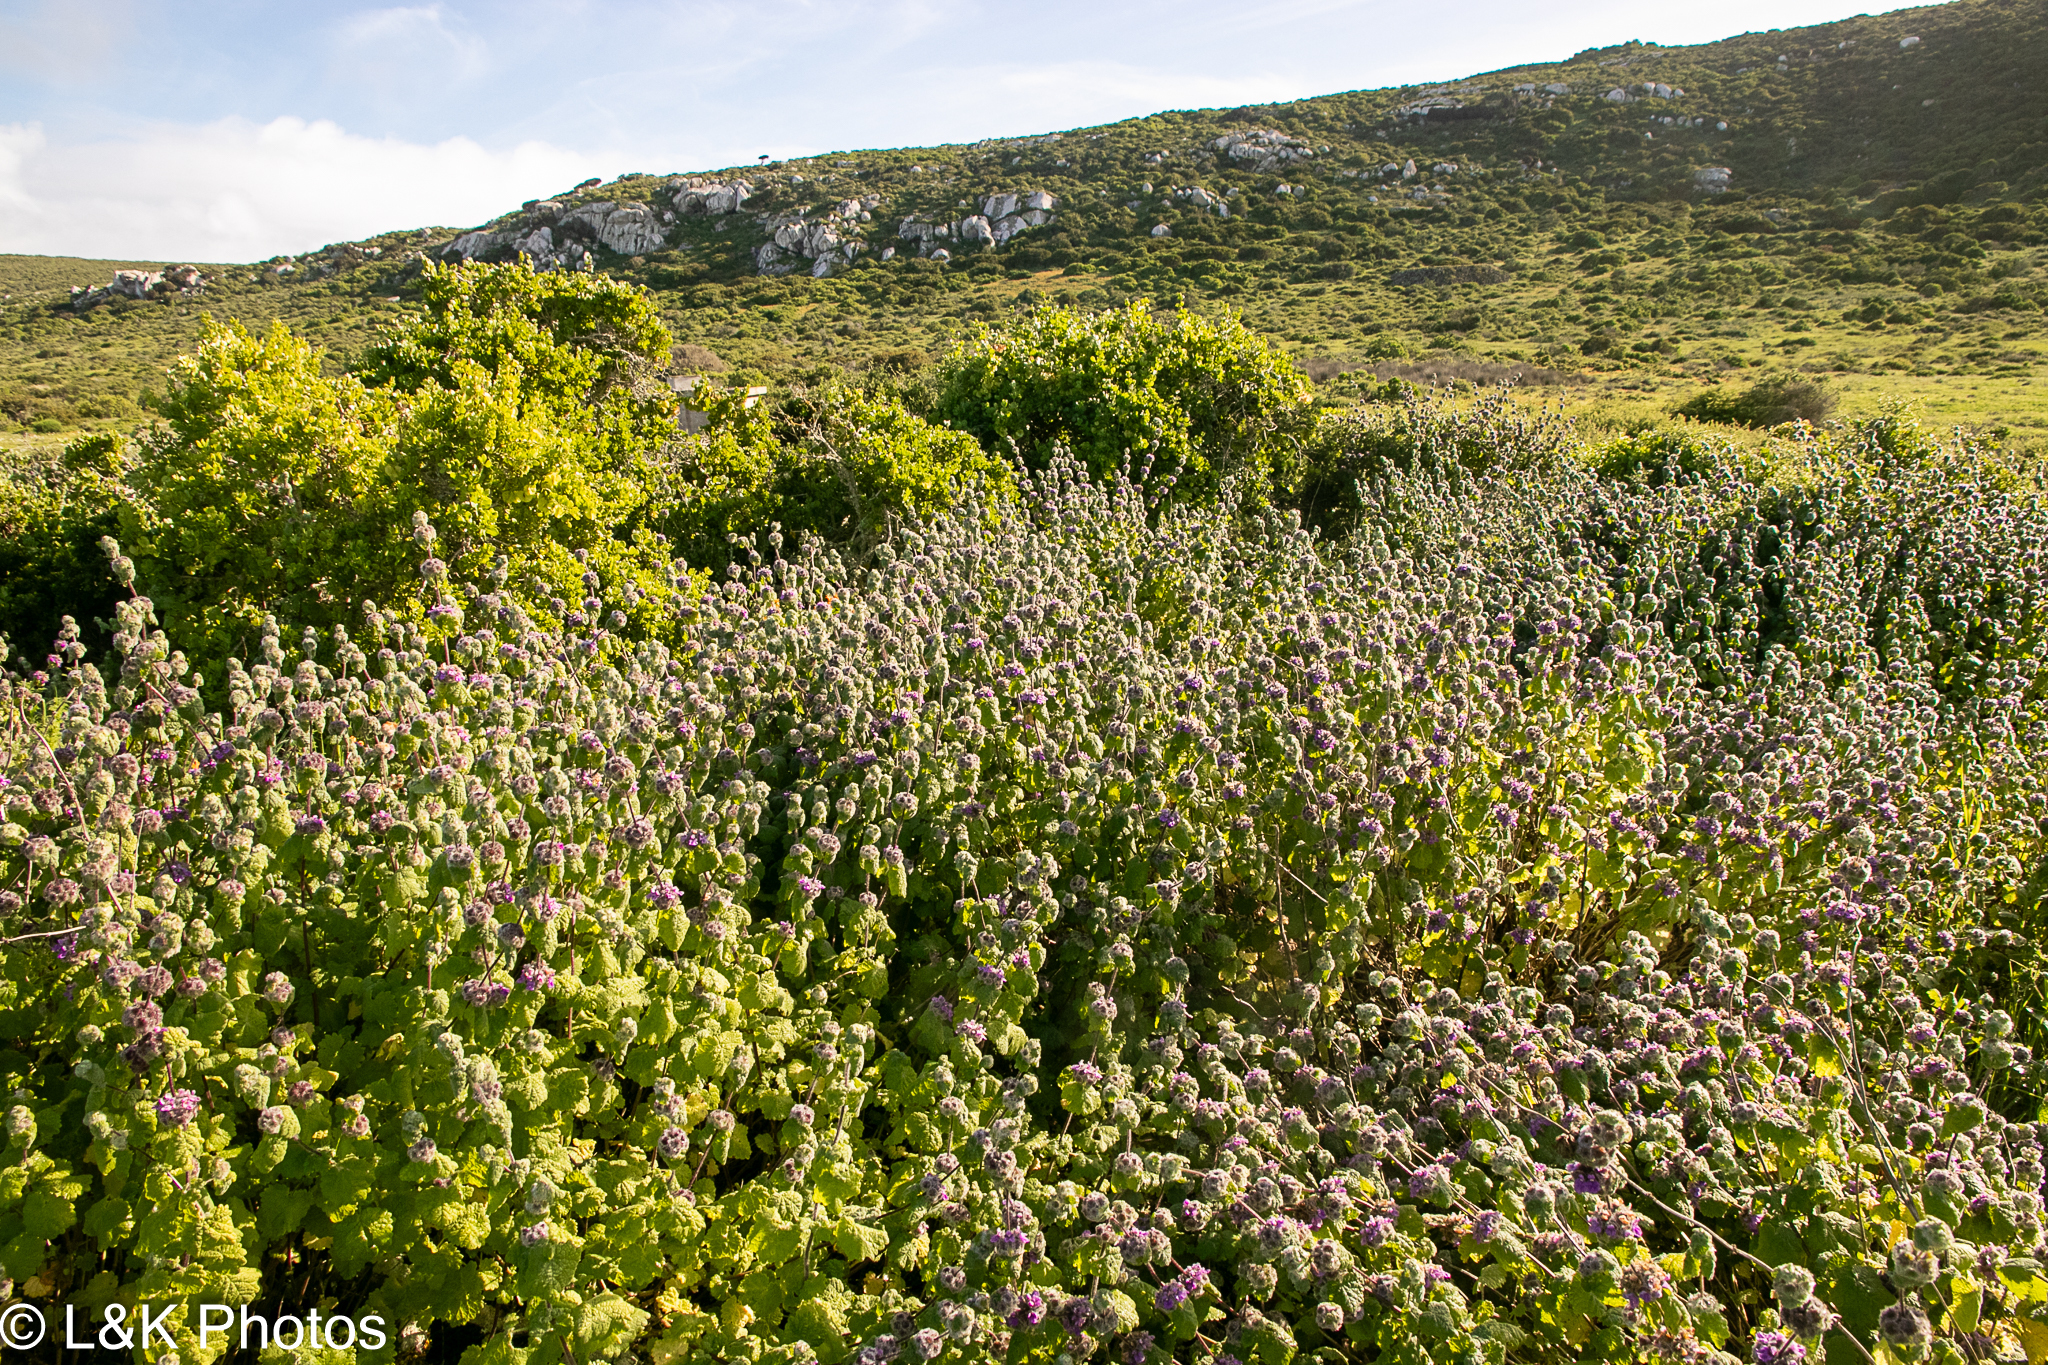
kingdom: Plantae
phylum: Tracheophyta
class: Magnoliopsida
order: Lamiales
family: Lamiaceae
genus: Pseudodictamnus
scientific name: Pseudodictamnus africanus
